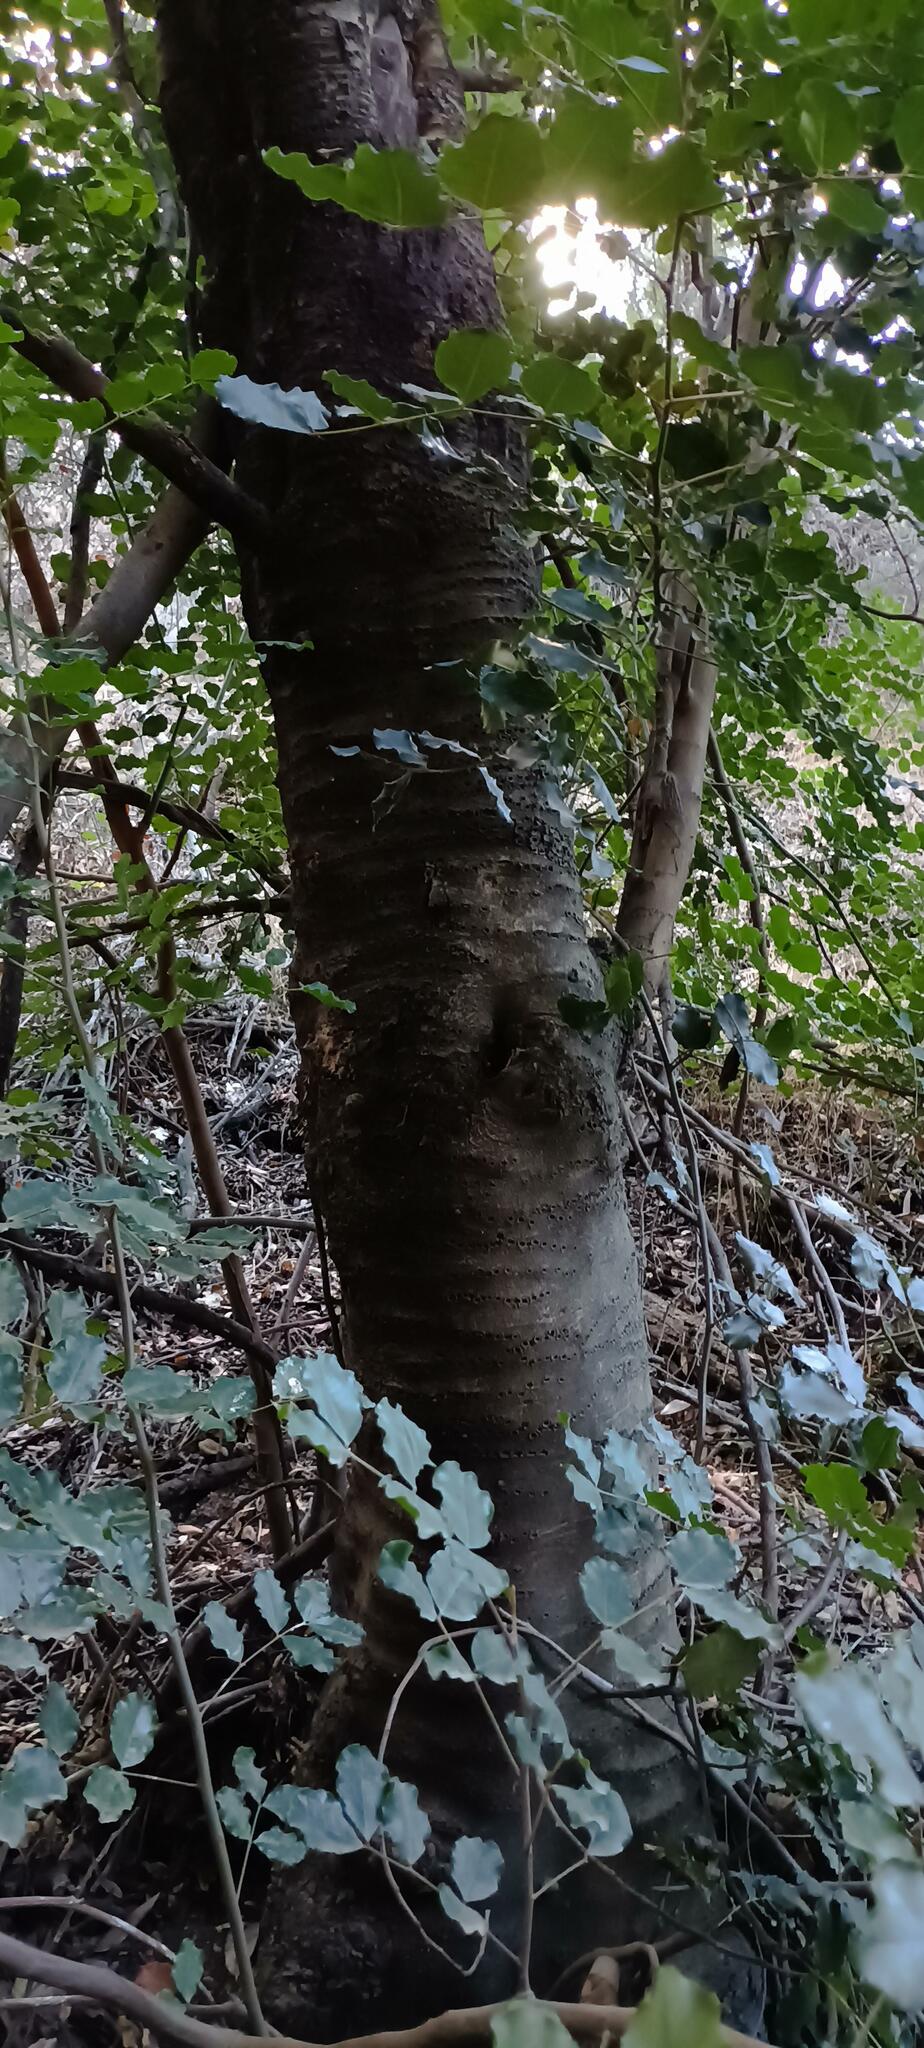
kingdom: Plantae
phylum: Tracheophyta
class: Magnoliopsida
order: Fabales
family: Fabaceae
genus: Ceratonia
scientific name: Ceratonia siliqua
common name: Carob
